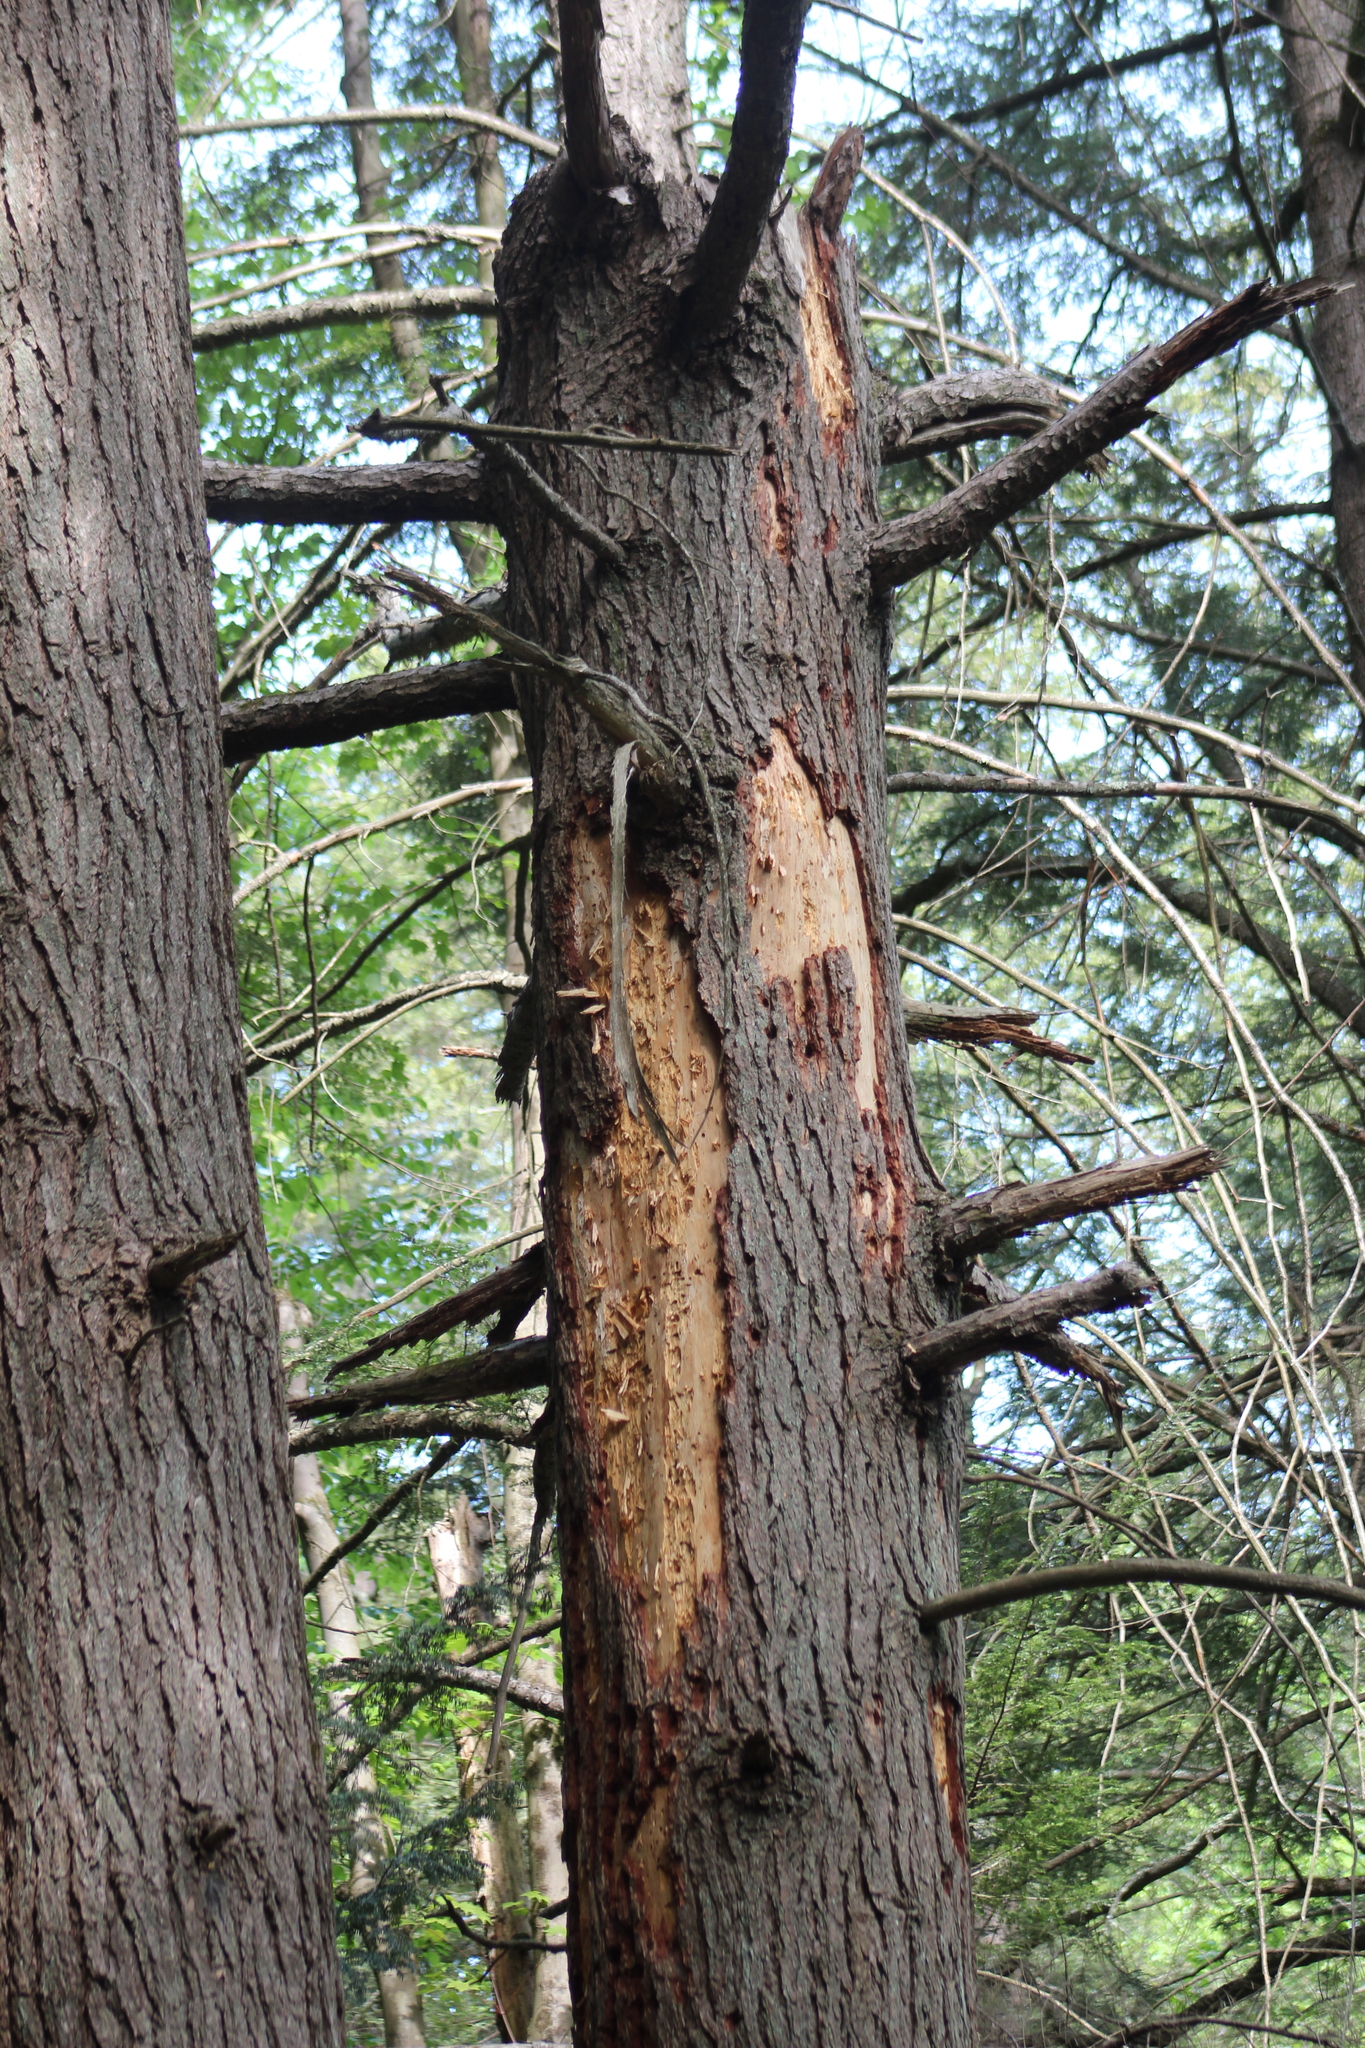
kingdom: Plantae
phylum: Tracheophyta
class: Pinopsida
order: Pinales
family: Pinaceae
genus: Tsuga
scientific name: Tsuga canadensis
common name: Eastern hemlock
